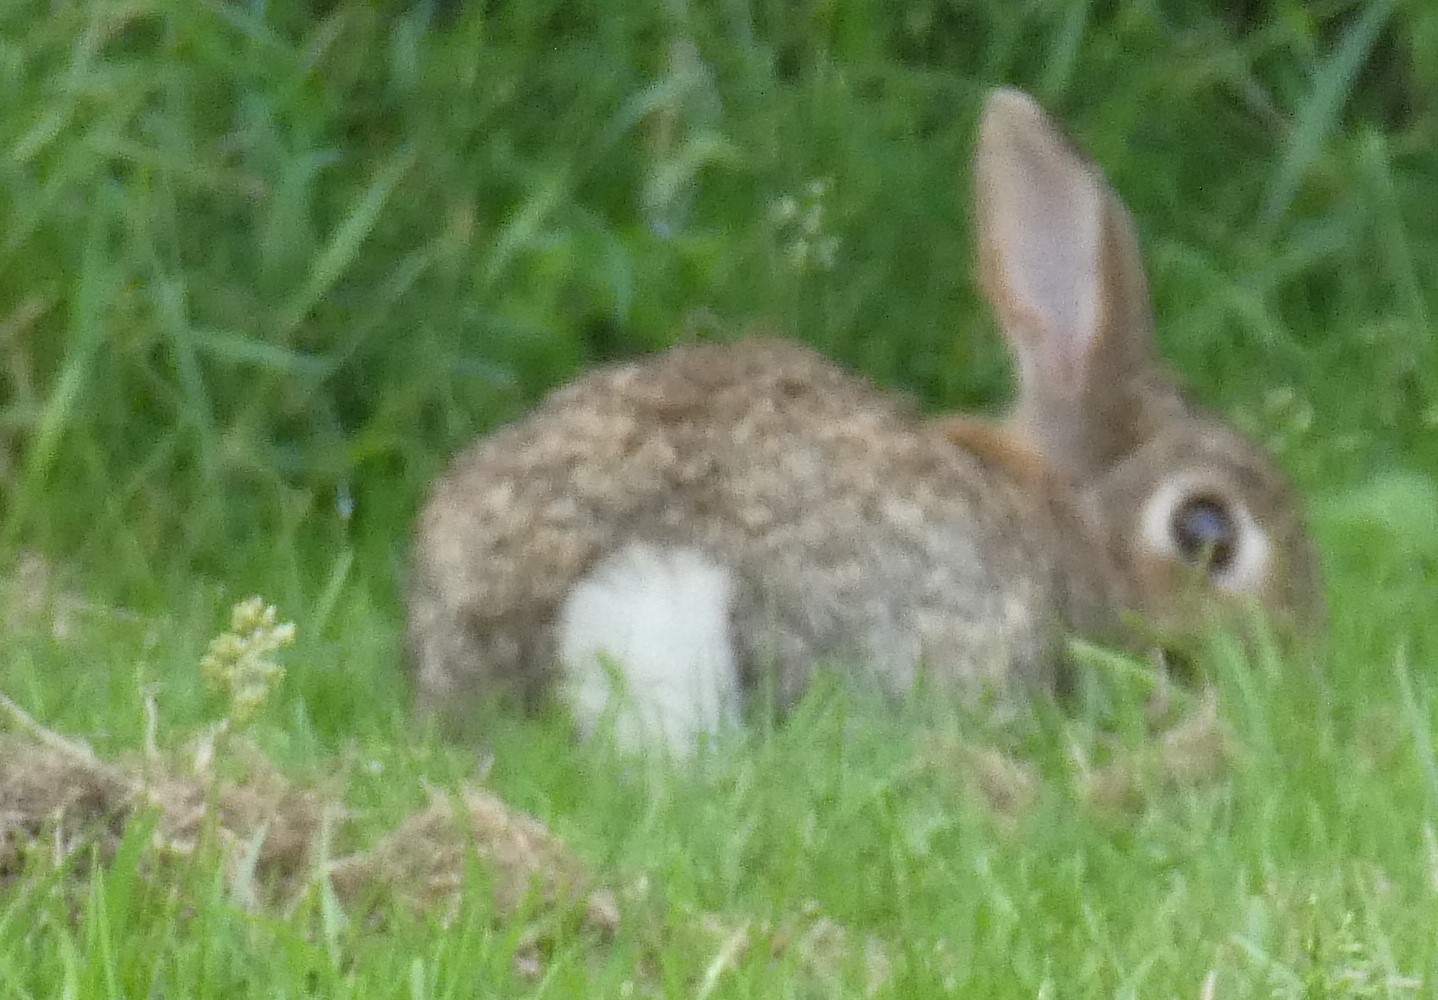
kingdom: Animalia
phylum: Chordata
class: Mammalia
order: Lagomorpha
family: Leporidae
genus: Oryctolagus
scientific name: Oryctolagus cuniculus
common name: European rabbit
